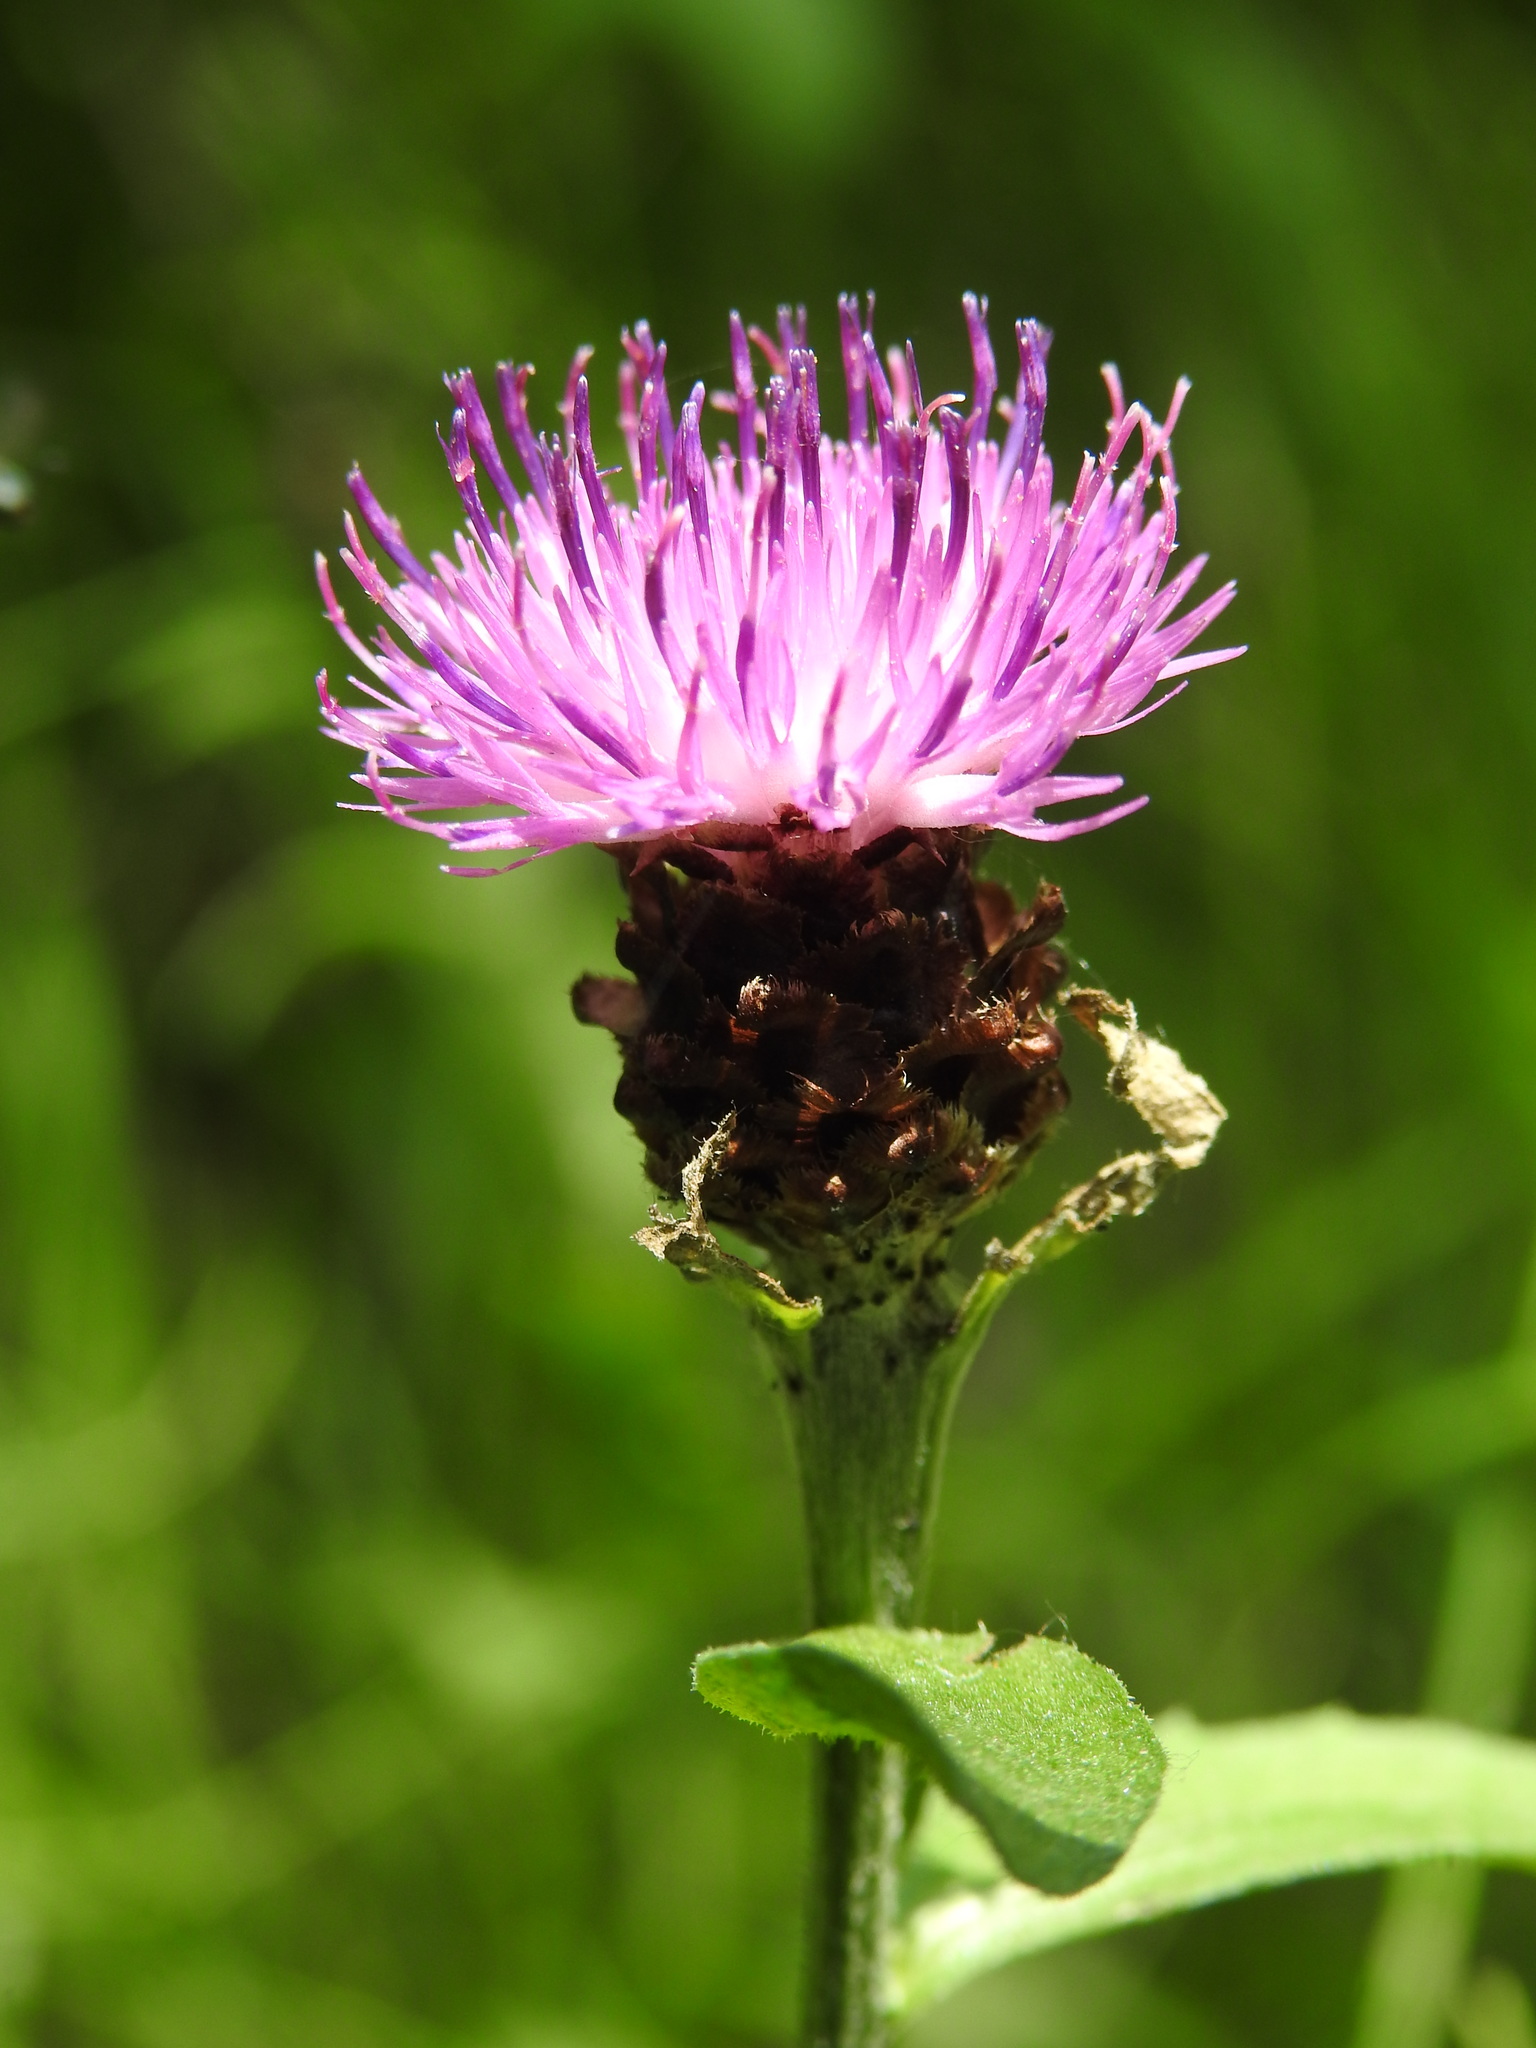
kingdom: Plantae
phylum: Tracheophyta
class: Magnoliopsida
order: Asterales
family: Asteraceae
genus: Centaurea
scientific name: Centaurea jacea
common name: Brown knapweed
